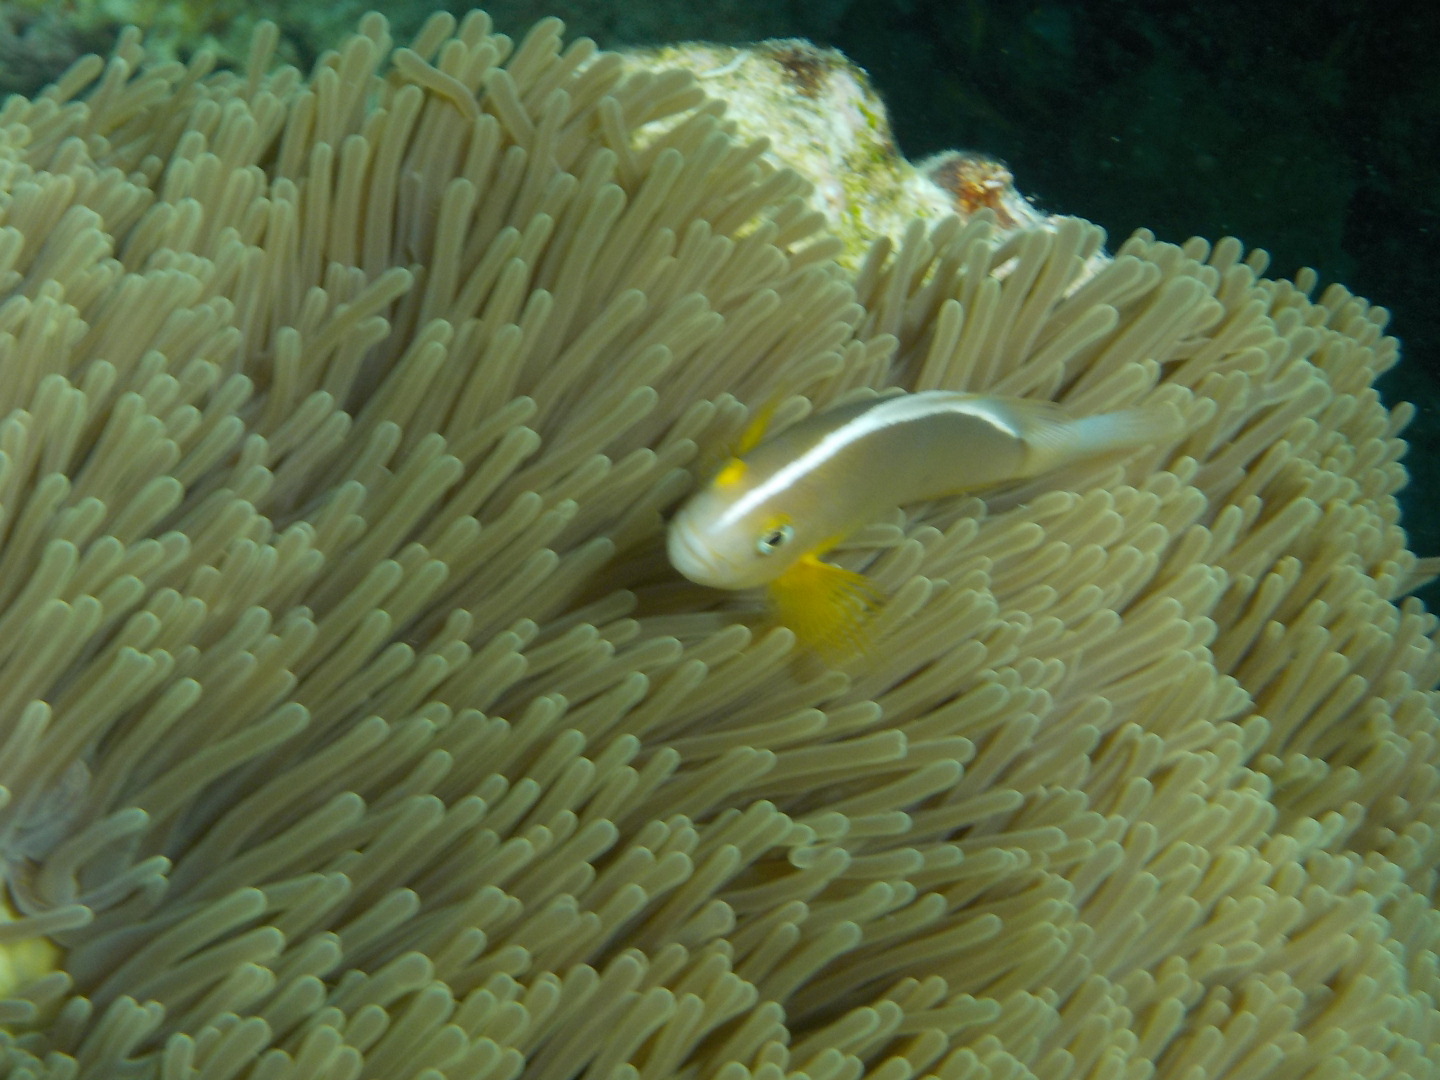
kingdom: Animalia
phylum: Chordata
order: Perciformes
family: Pomacentridae
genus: Amphiprion
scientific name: Amphiprion akallopisos
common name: Skunk clownfish
